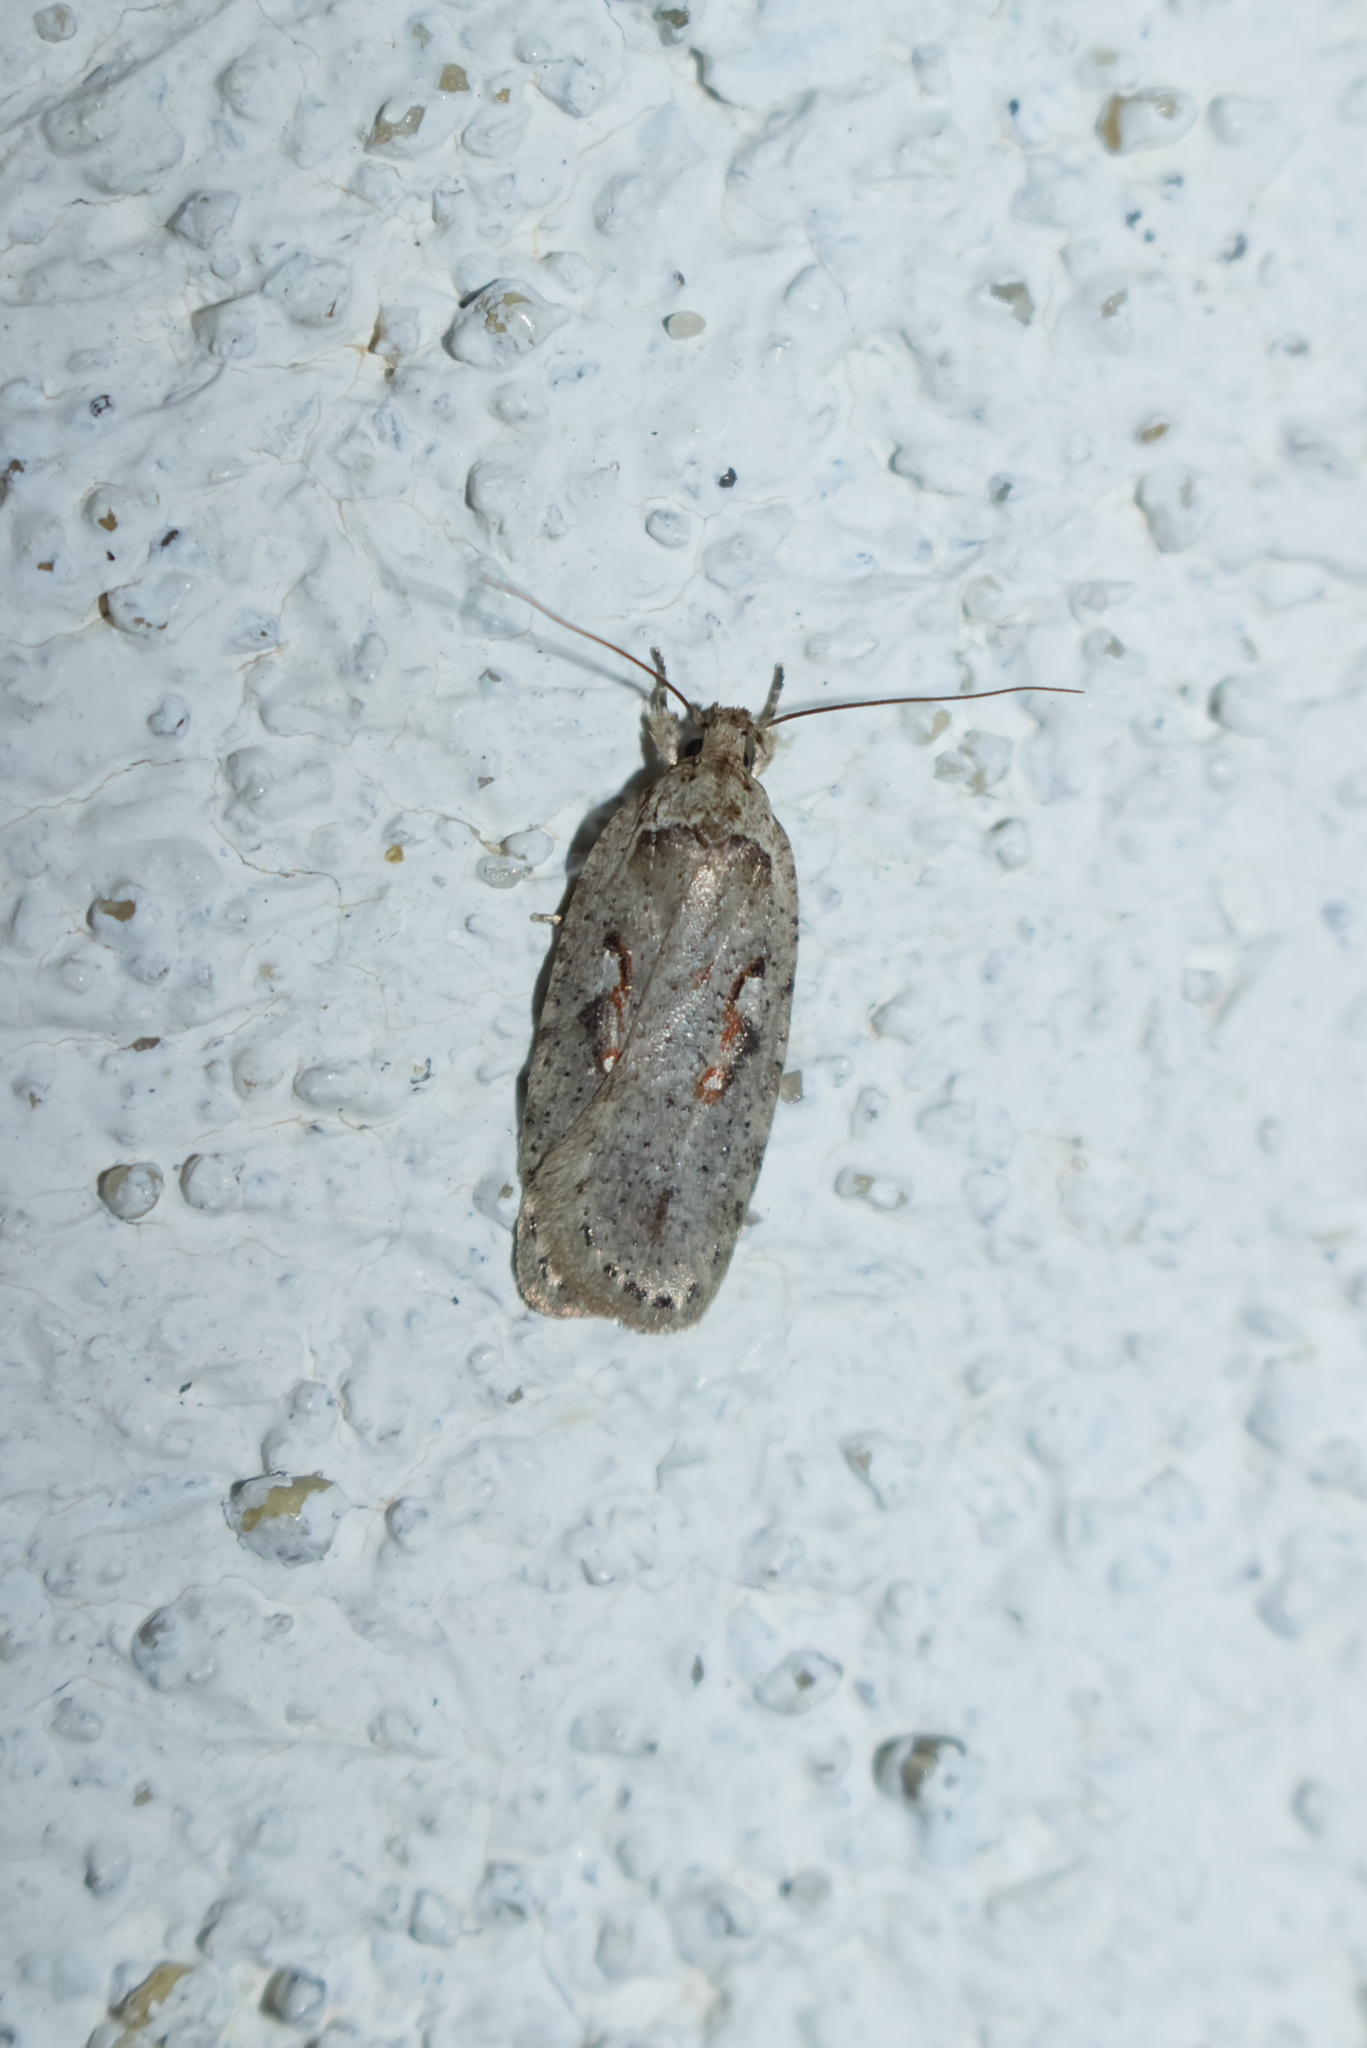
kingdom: Animalia
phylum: Arthropoda
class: Insecta
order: Lepidoptera
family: Depressariidae
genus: Agonopterix
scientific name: Agonopterix ocellana
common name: Red-letter flat-body
